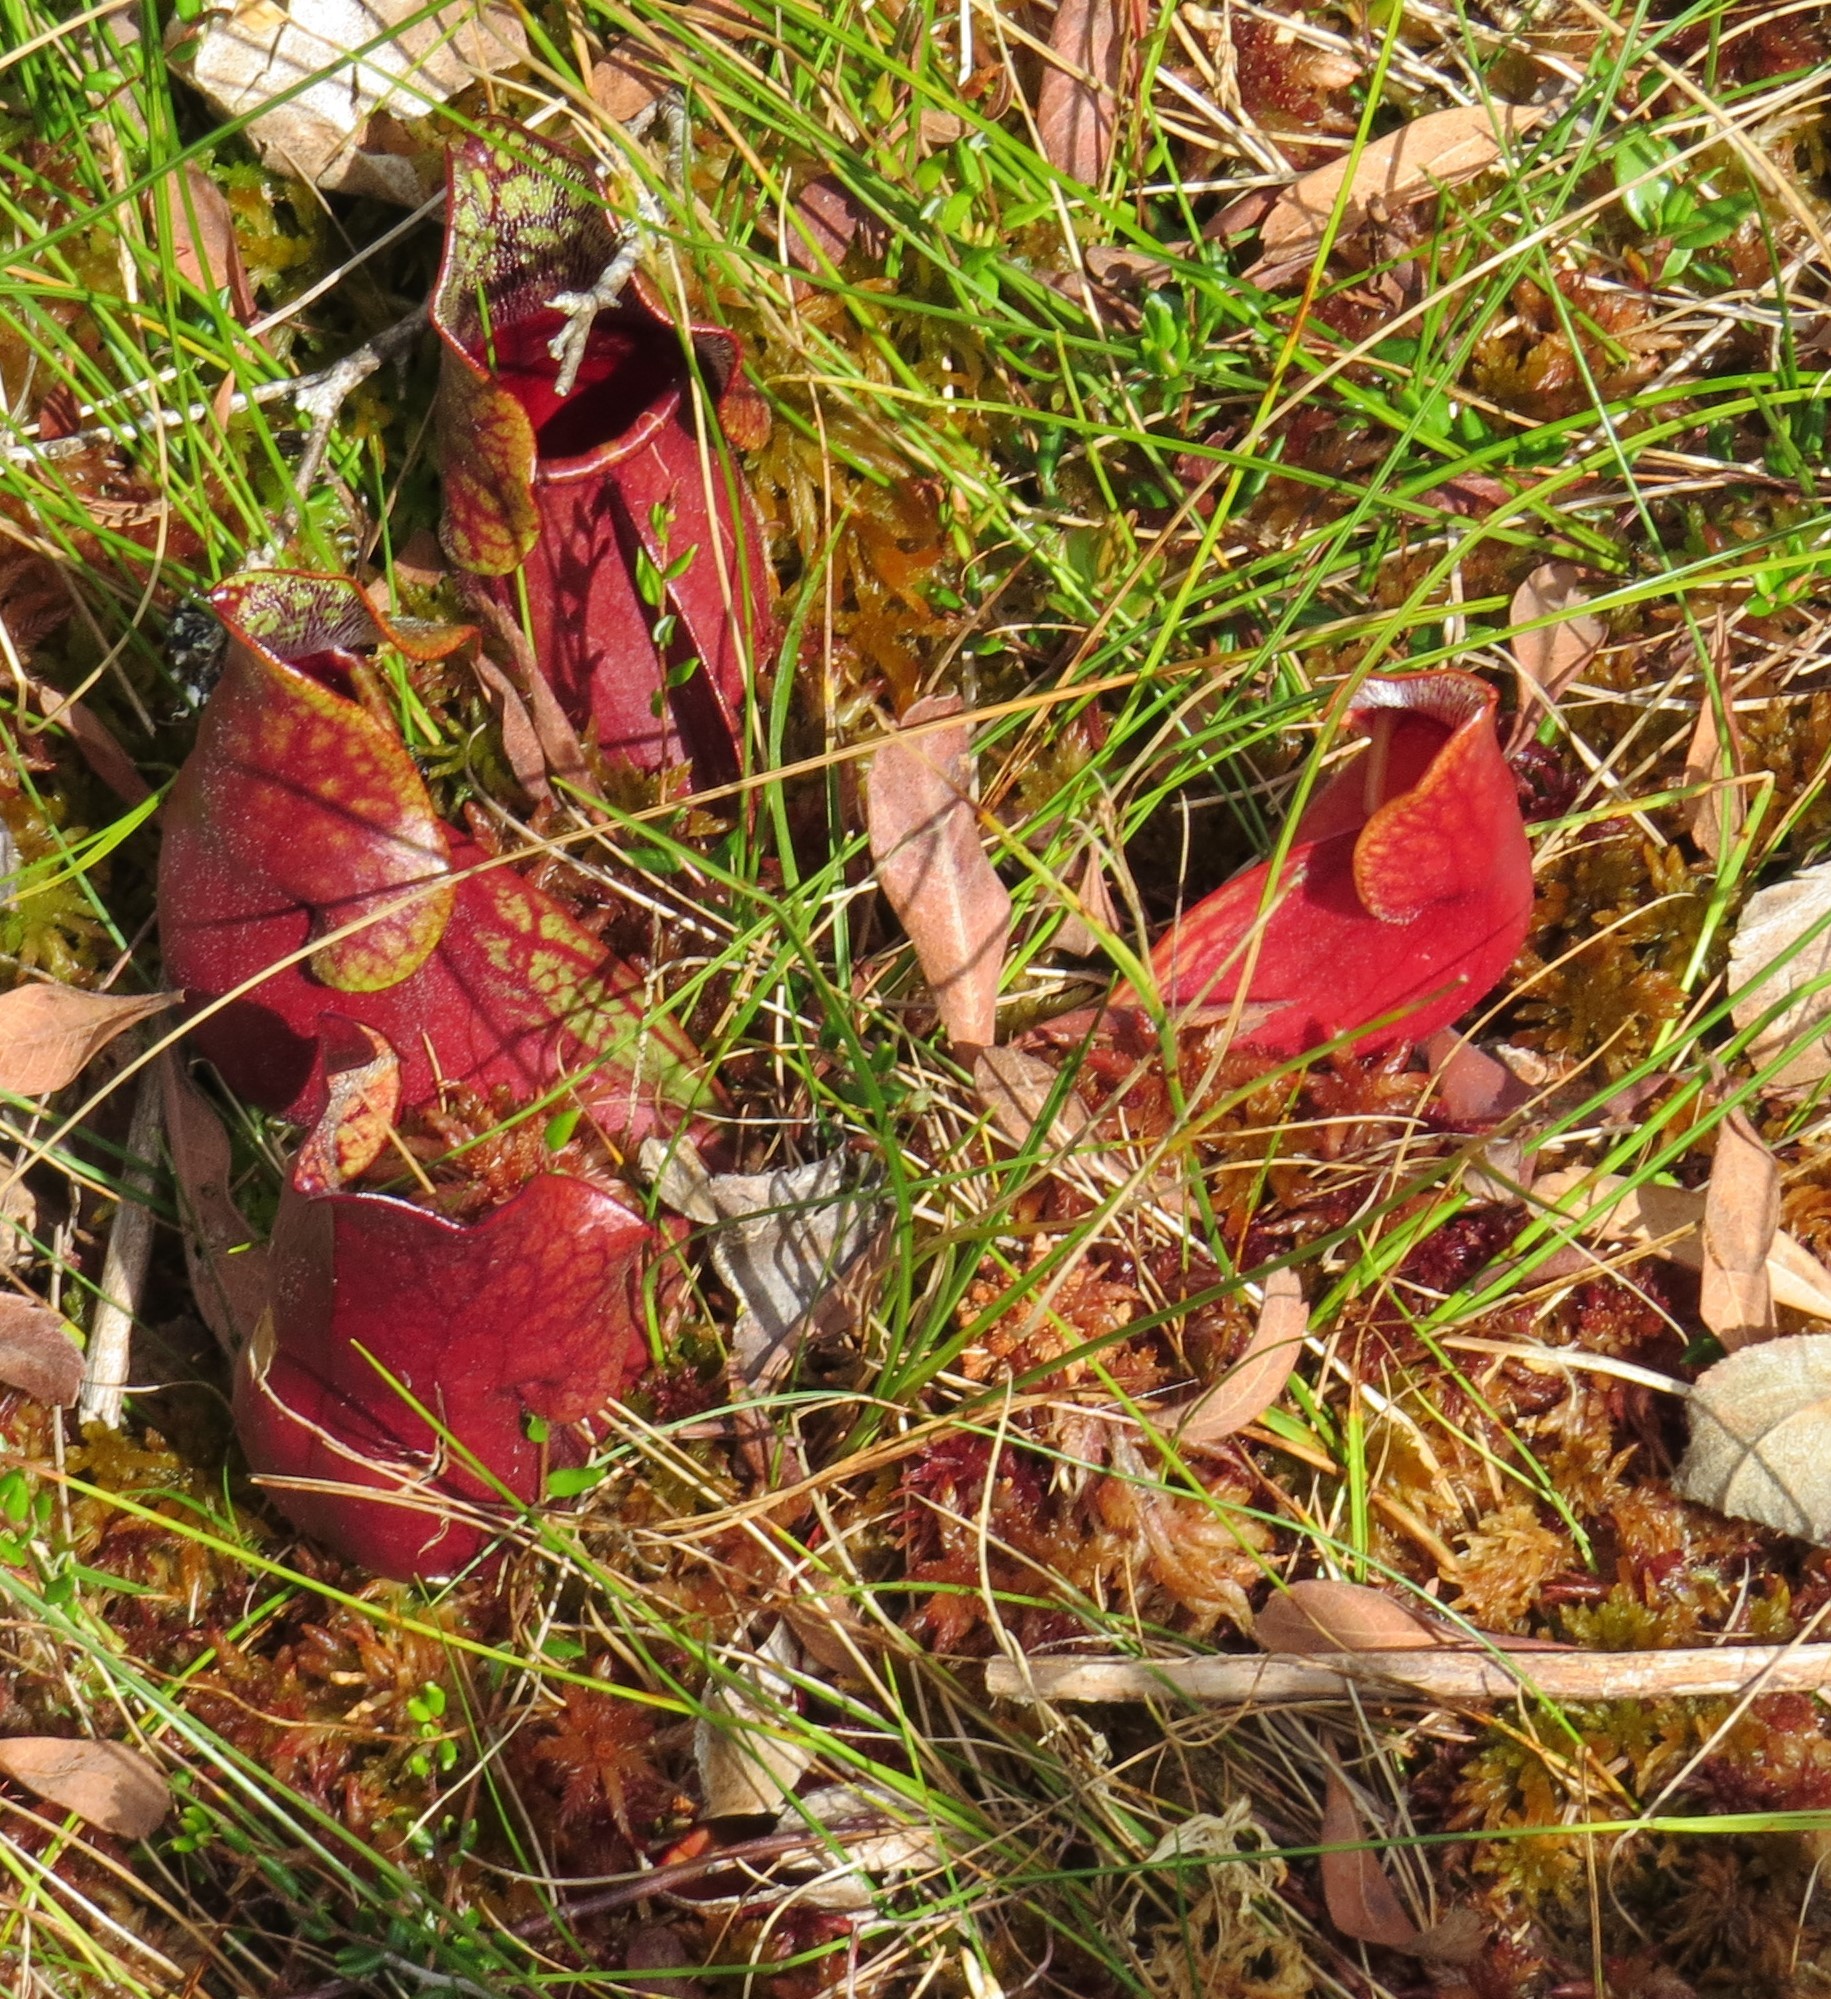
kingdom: Plantae
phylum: Tracheophyta
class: Magnoliopsida
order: Ericales
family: Sarraceniaceae
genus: Sarracenia
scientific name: Sarracenia purpurea
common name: Pitcherplant
